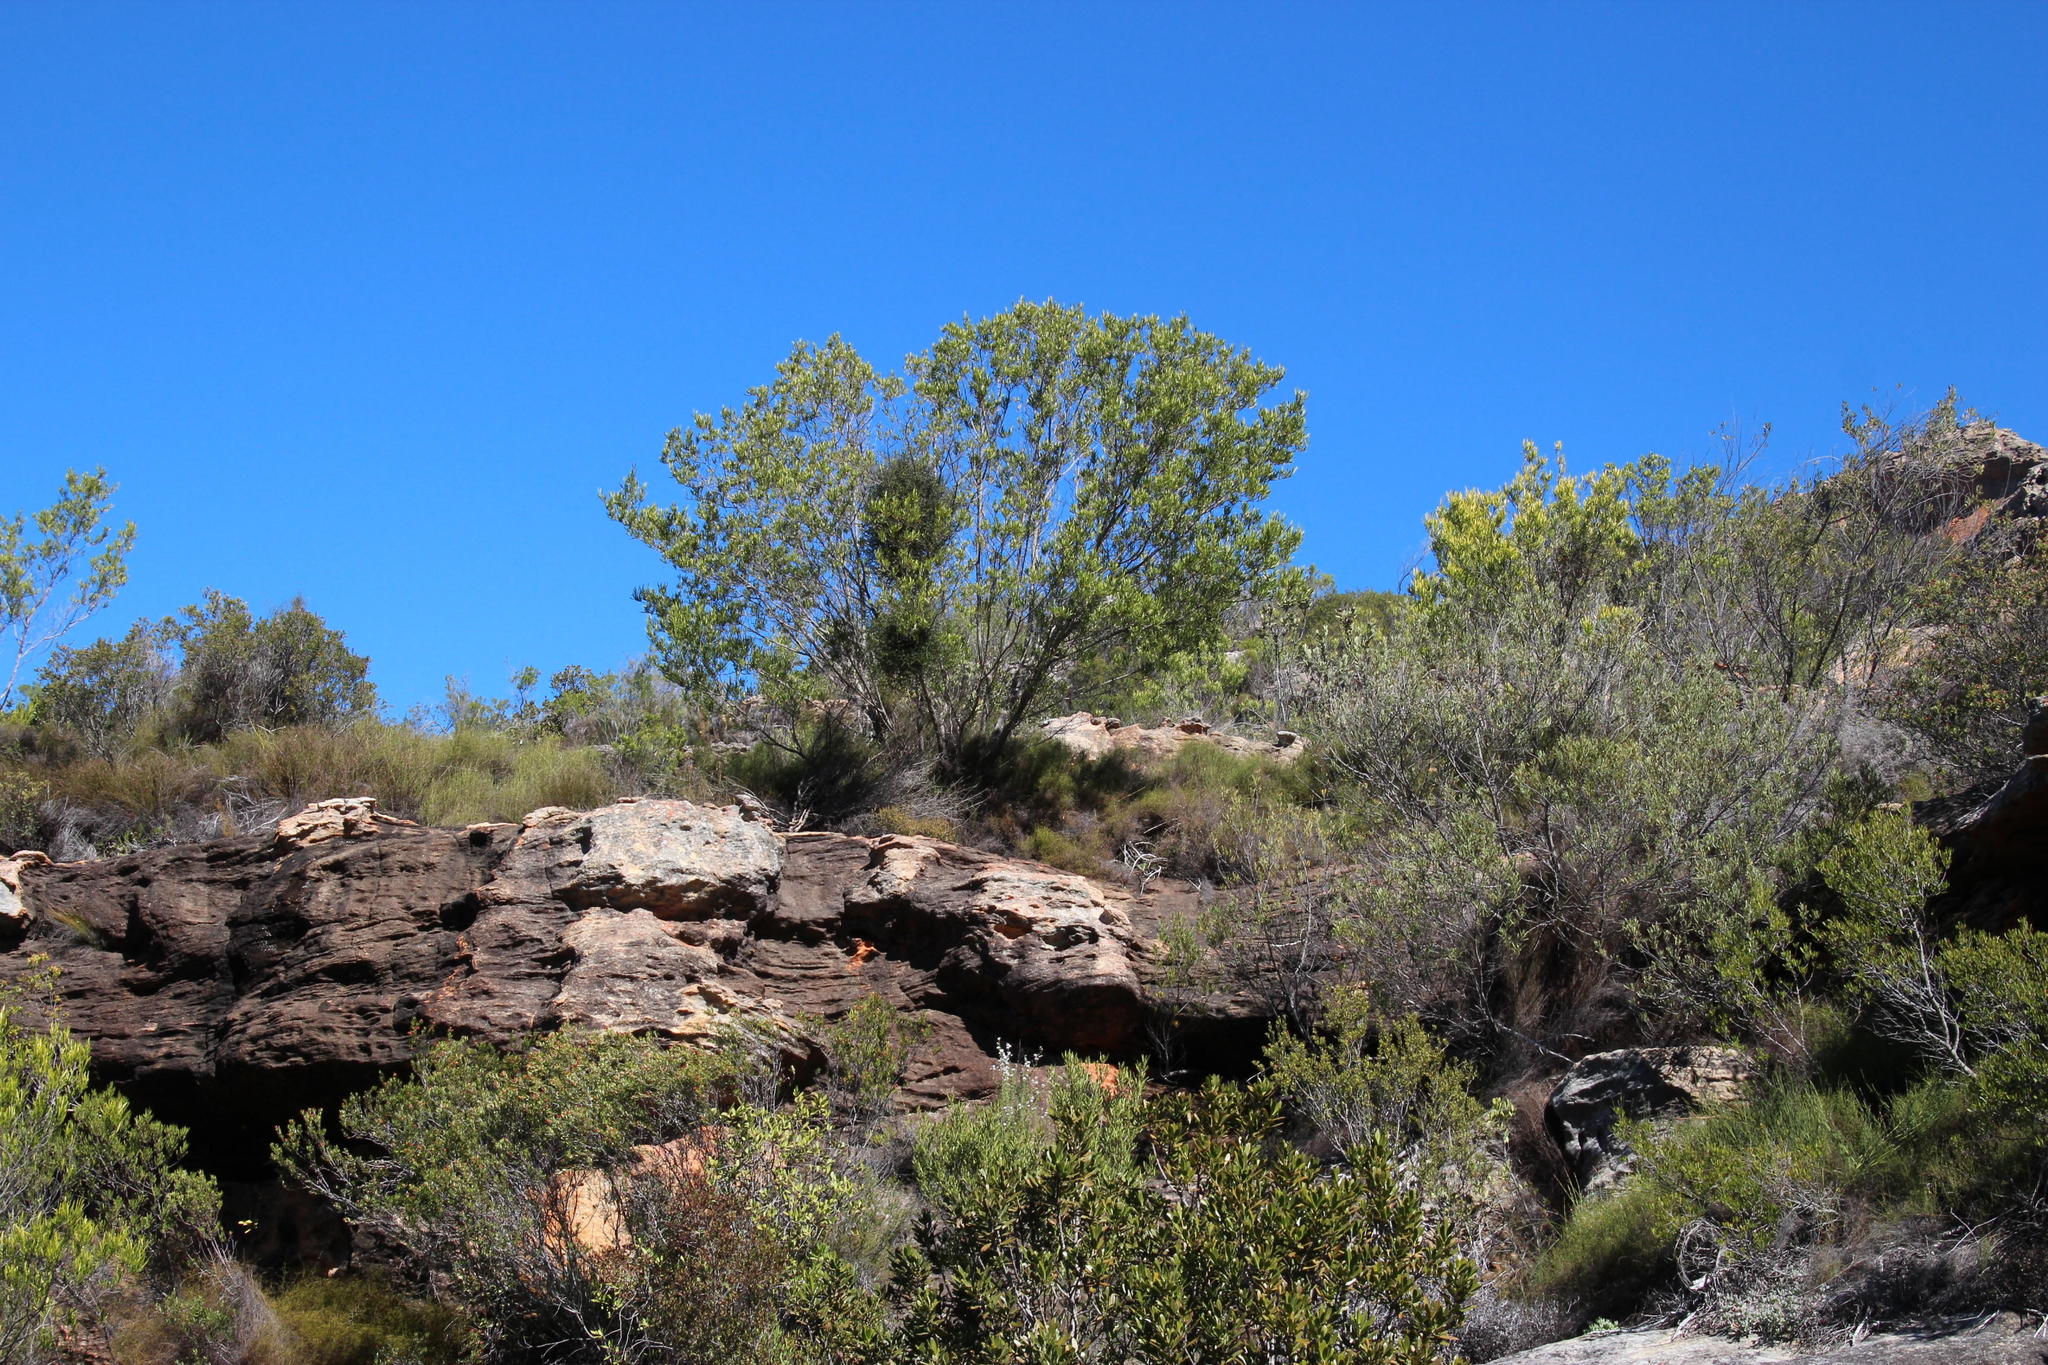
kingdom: Plantae
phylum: Tracheophyta
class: Magnoliopsida
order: Sapindales
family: Sapindaceae
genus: Dodonaea
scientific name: Dodonaea viscosa
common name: Hopbush
